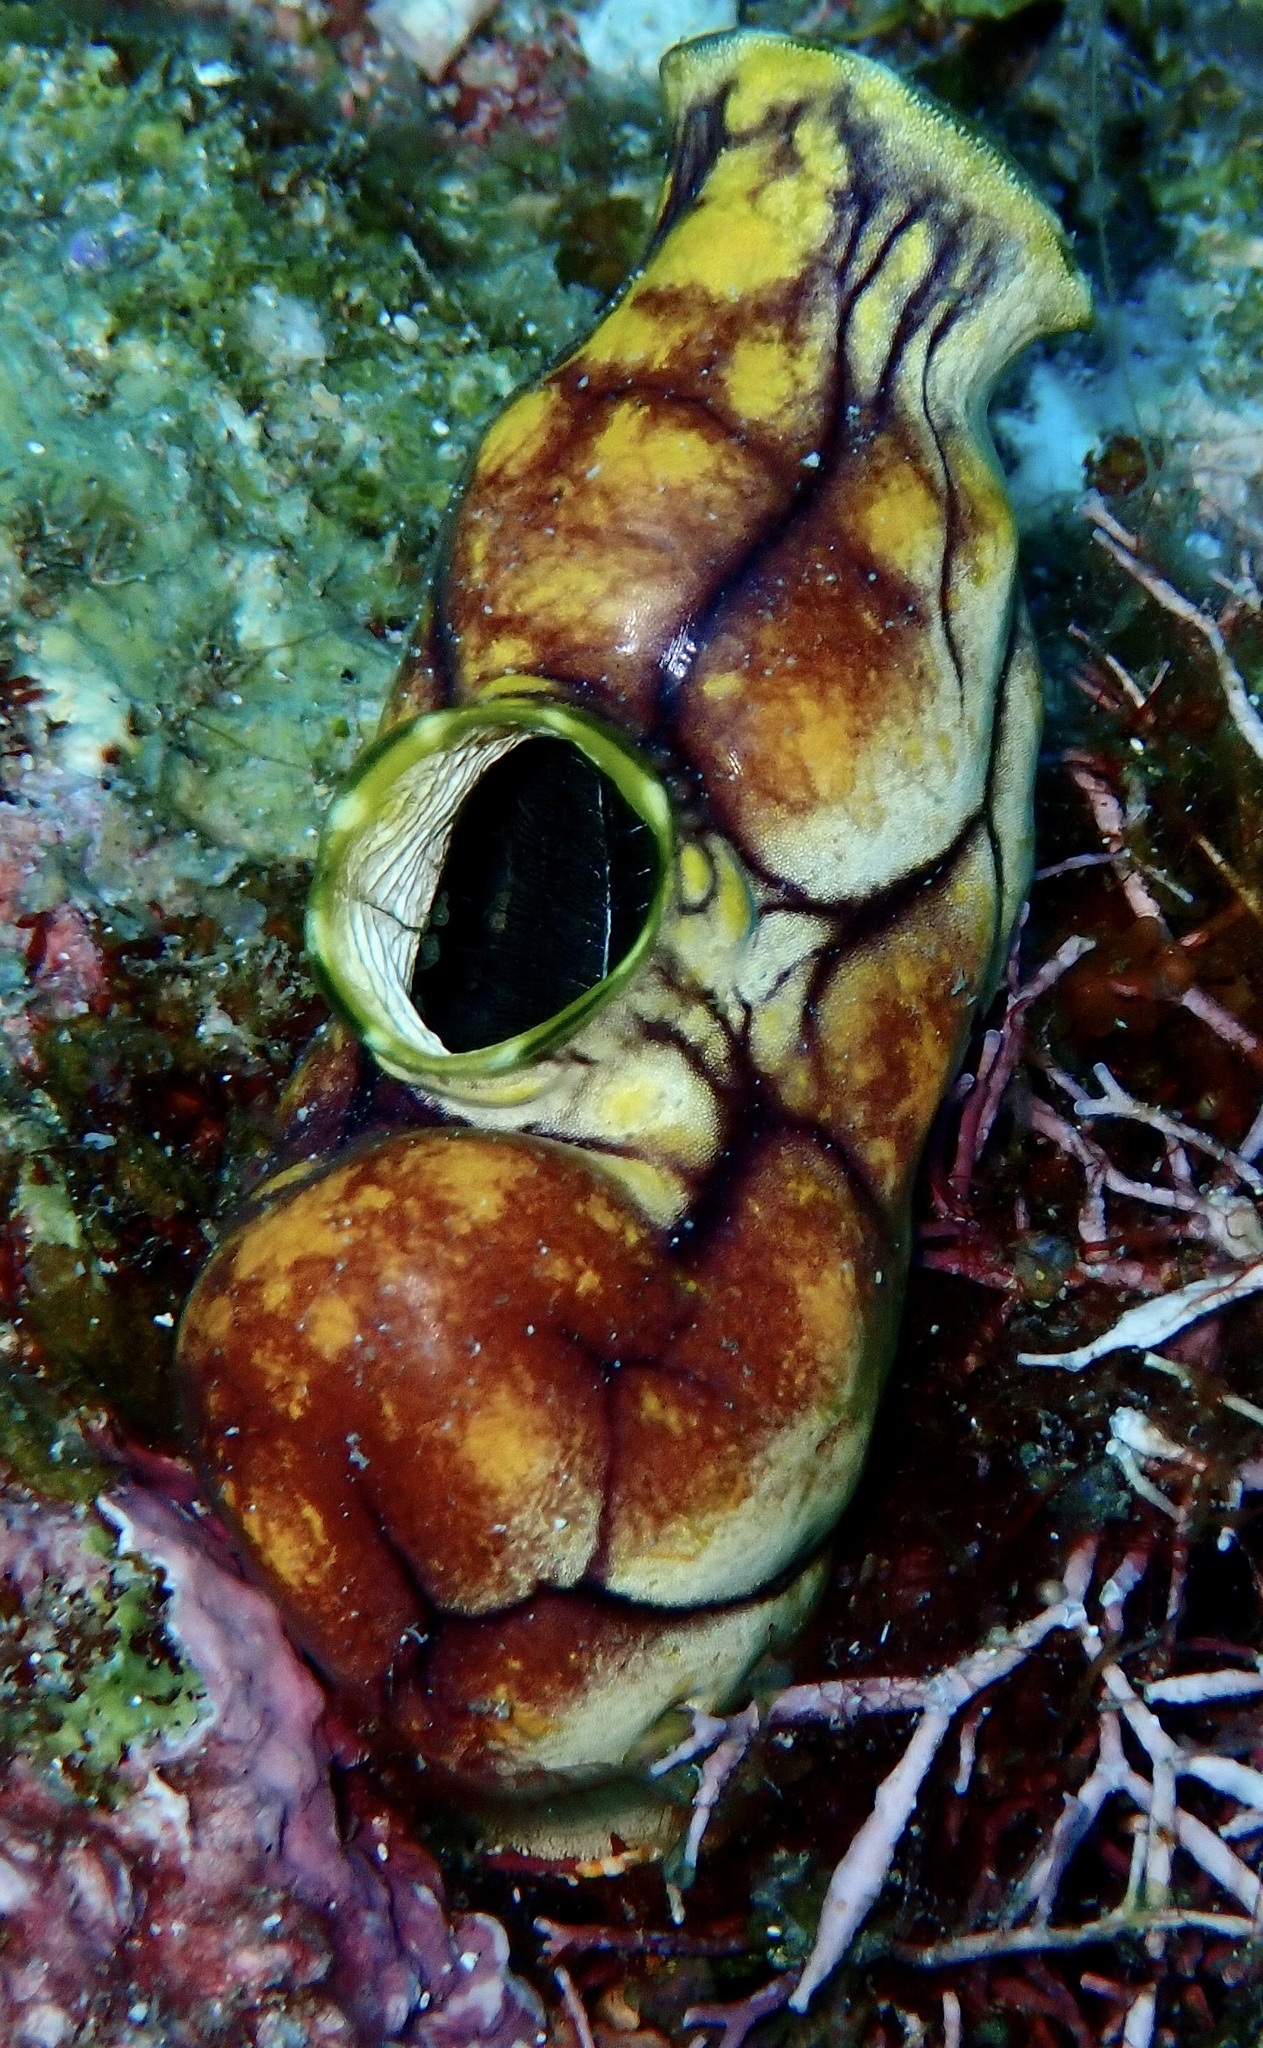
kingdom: Animalia
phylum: Chordata
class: Ascidiacea
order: Stolidobranchia
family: Styelidae
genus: Polycarpa
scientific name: Polycarpa aurata
